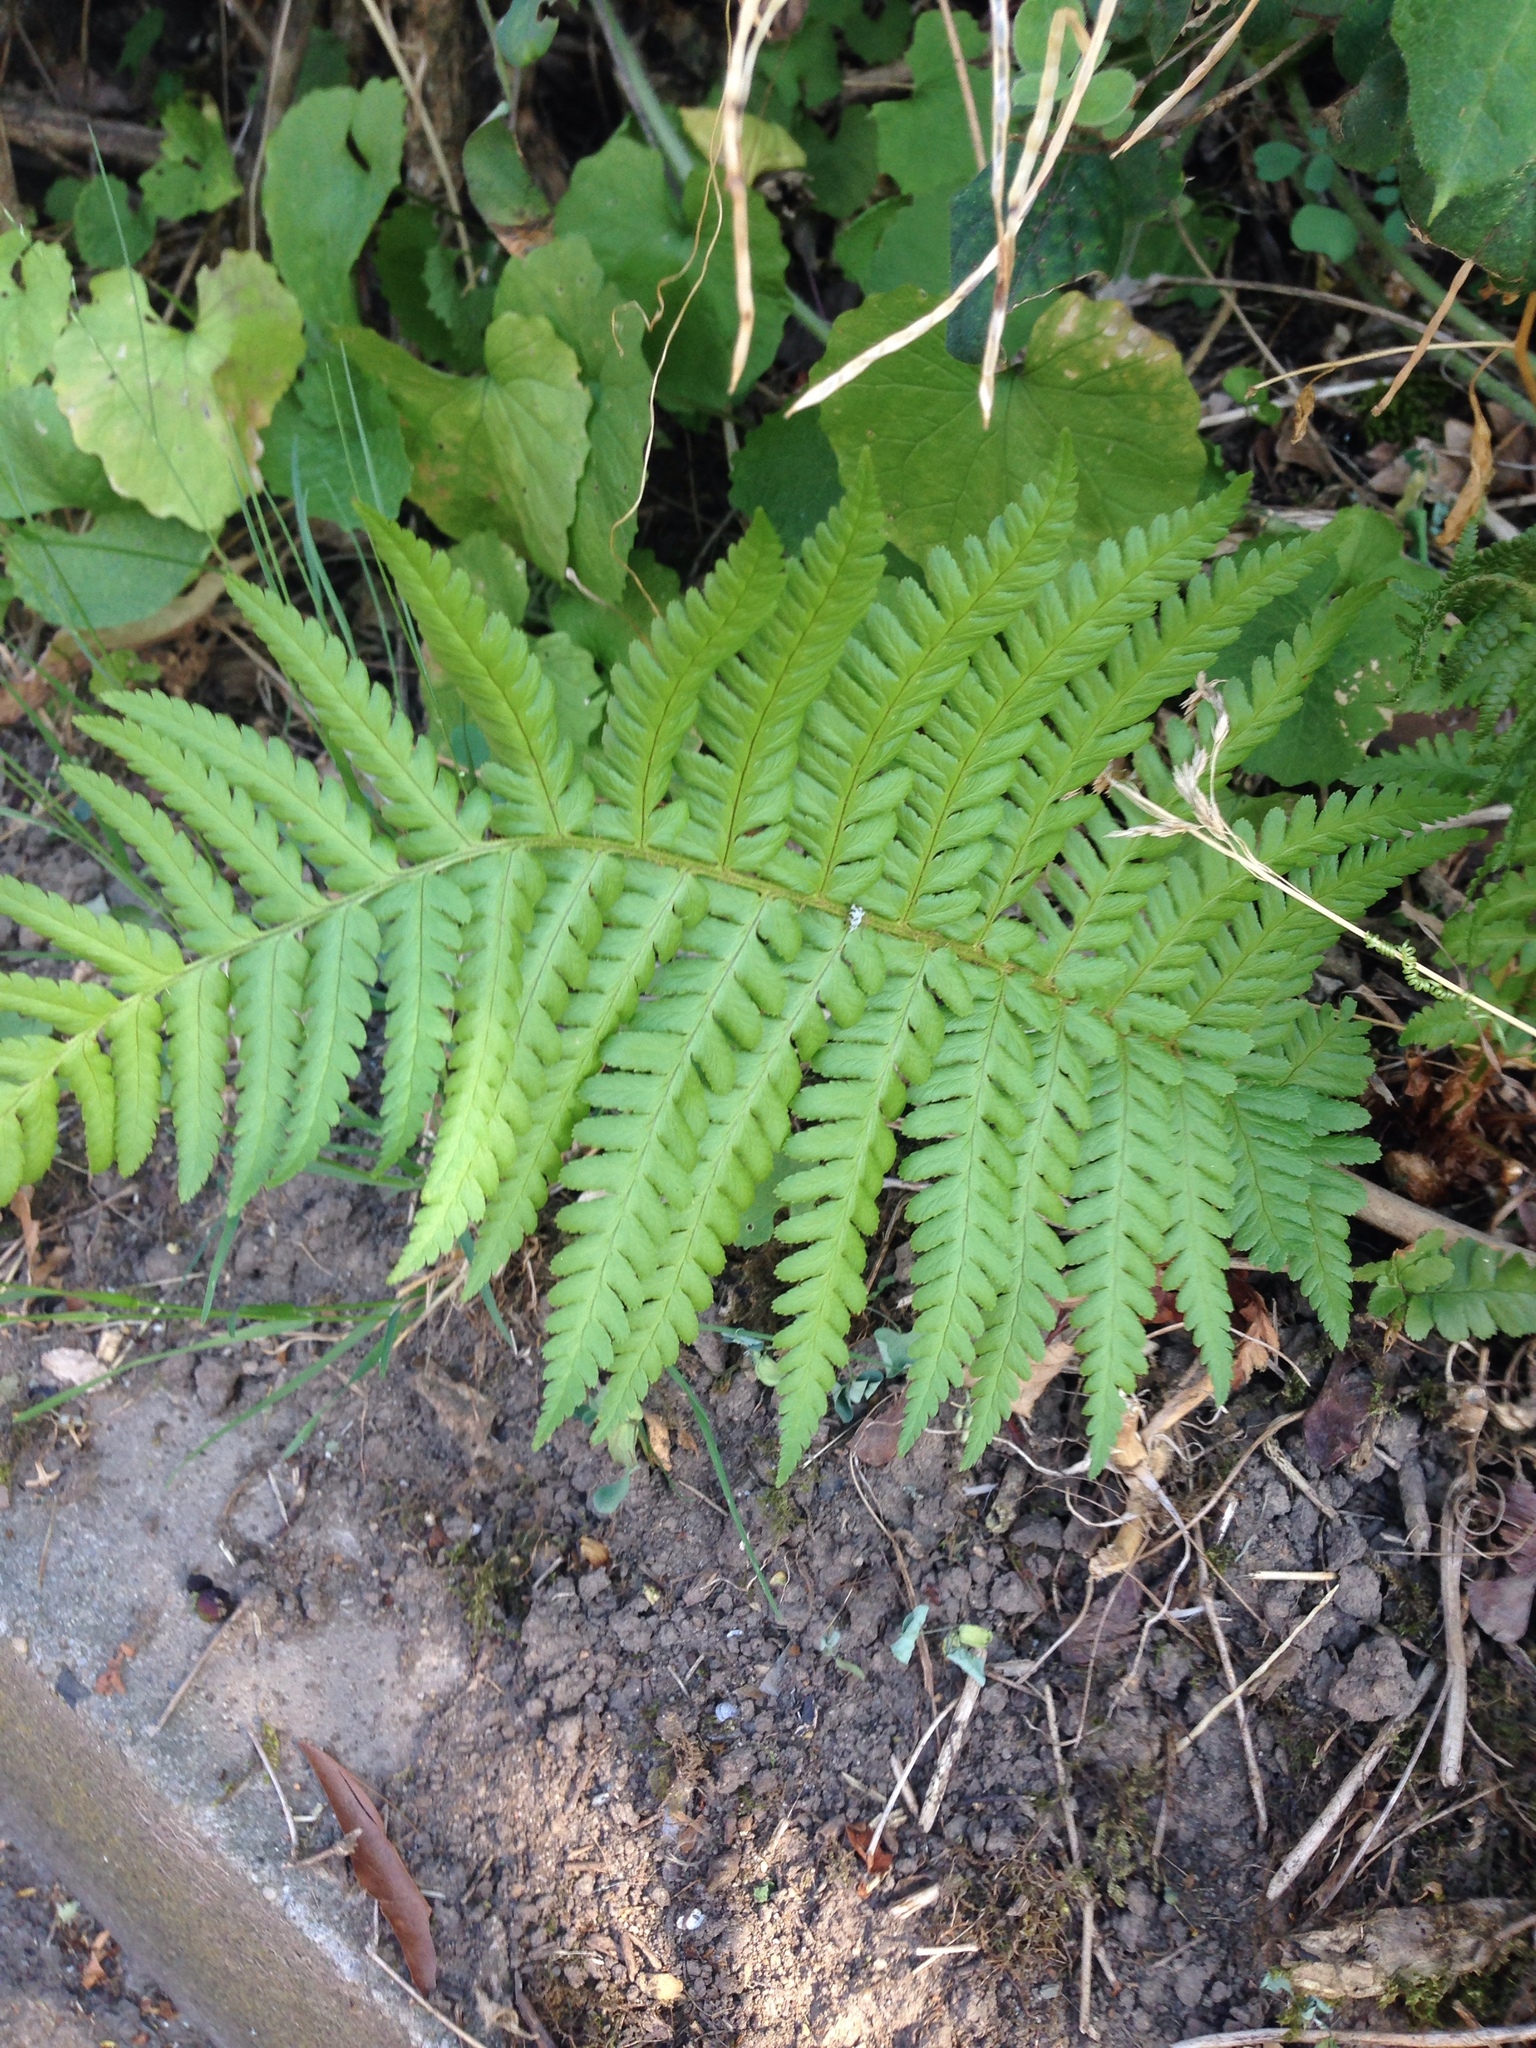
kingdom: Plantae
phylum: Tracheophyta
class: Polypodiopsida
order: Polypodiales
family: Dryopteridaceae
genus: Dryopteris
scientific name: Dryopteris filix-mas
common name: Male fern
